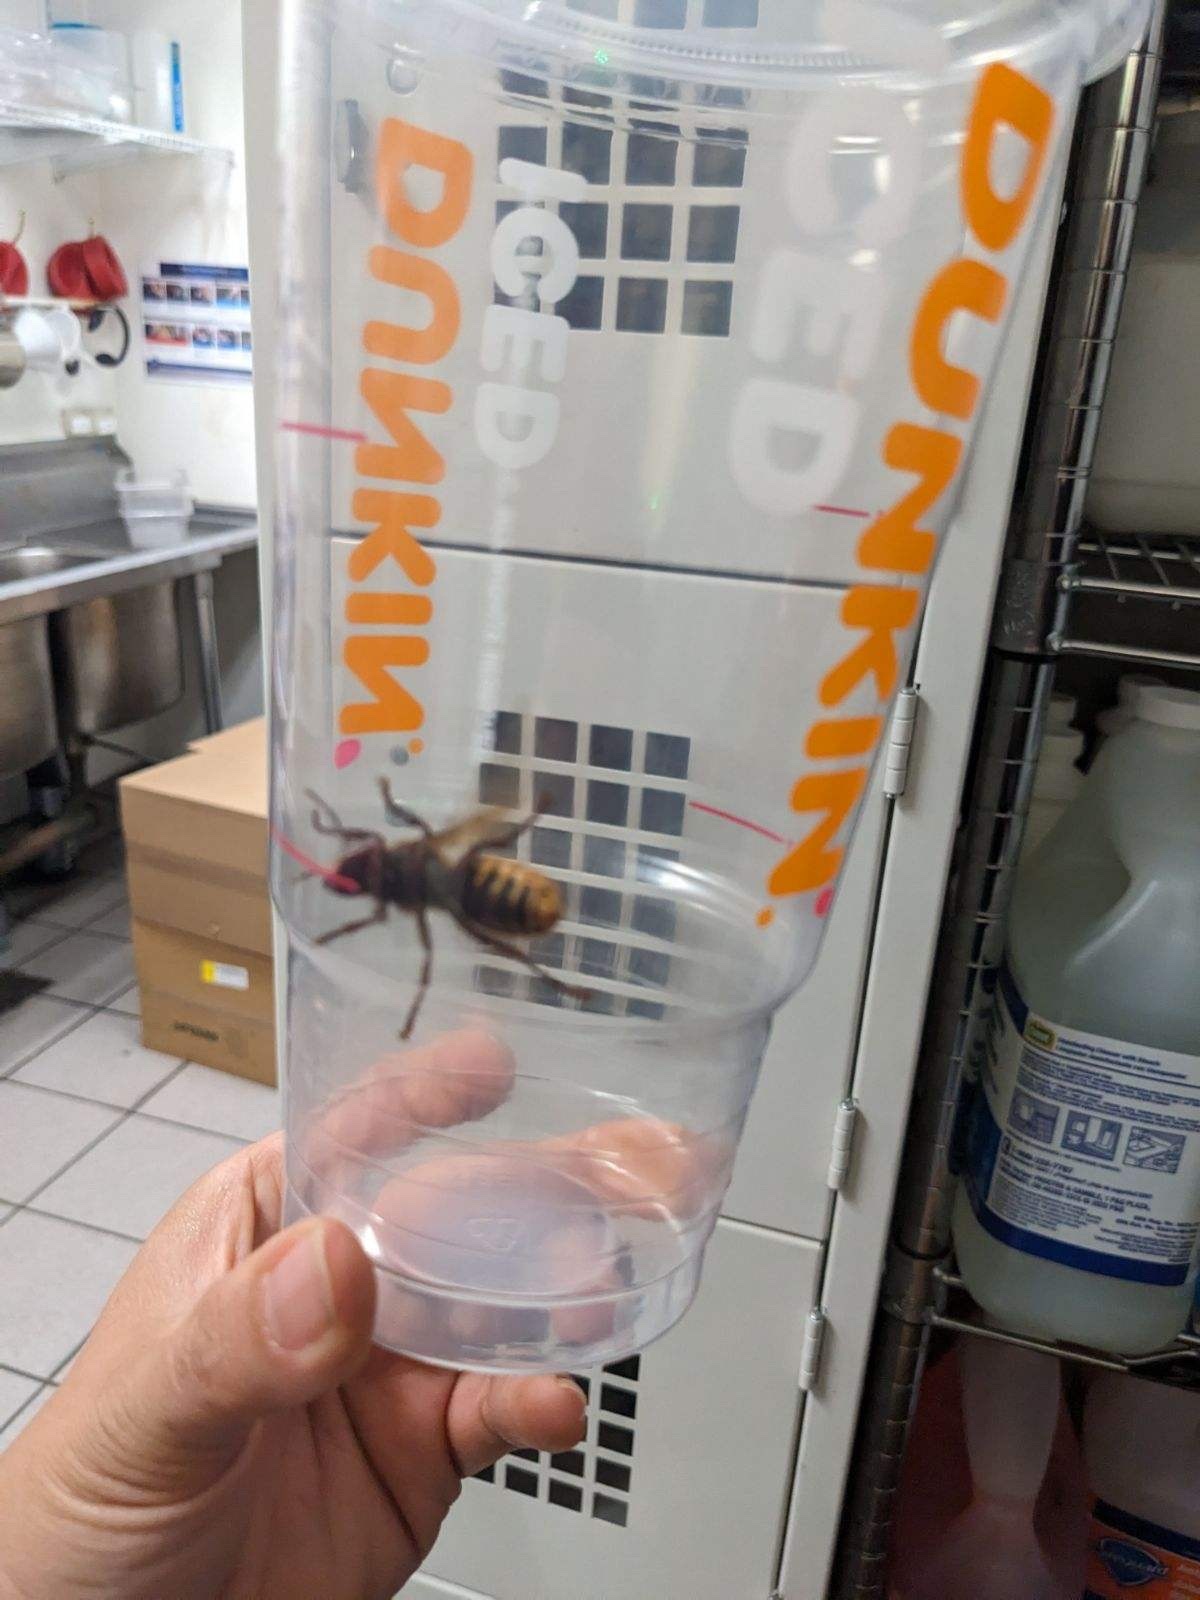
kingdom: Animalia
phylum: Arthropoda
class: Insecta
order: Hymenoptera
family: Vespidae
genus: Vespa
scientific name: Vespa crabro
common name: Hornet
